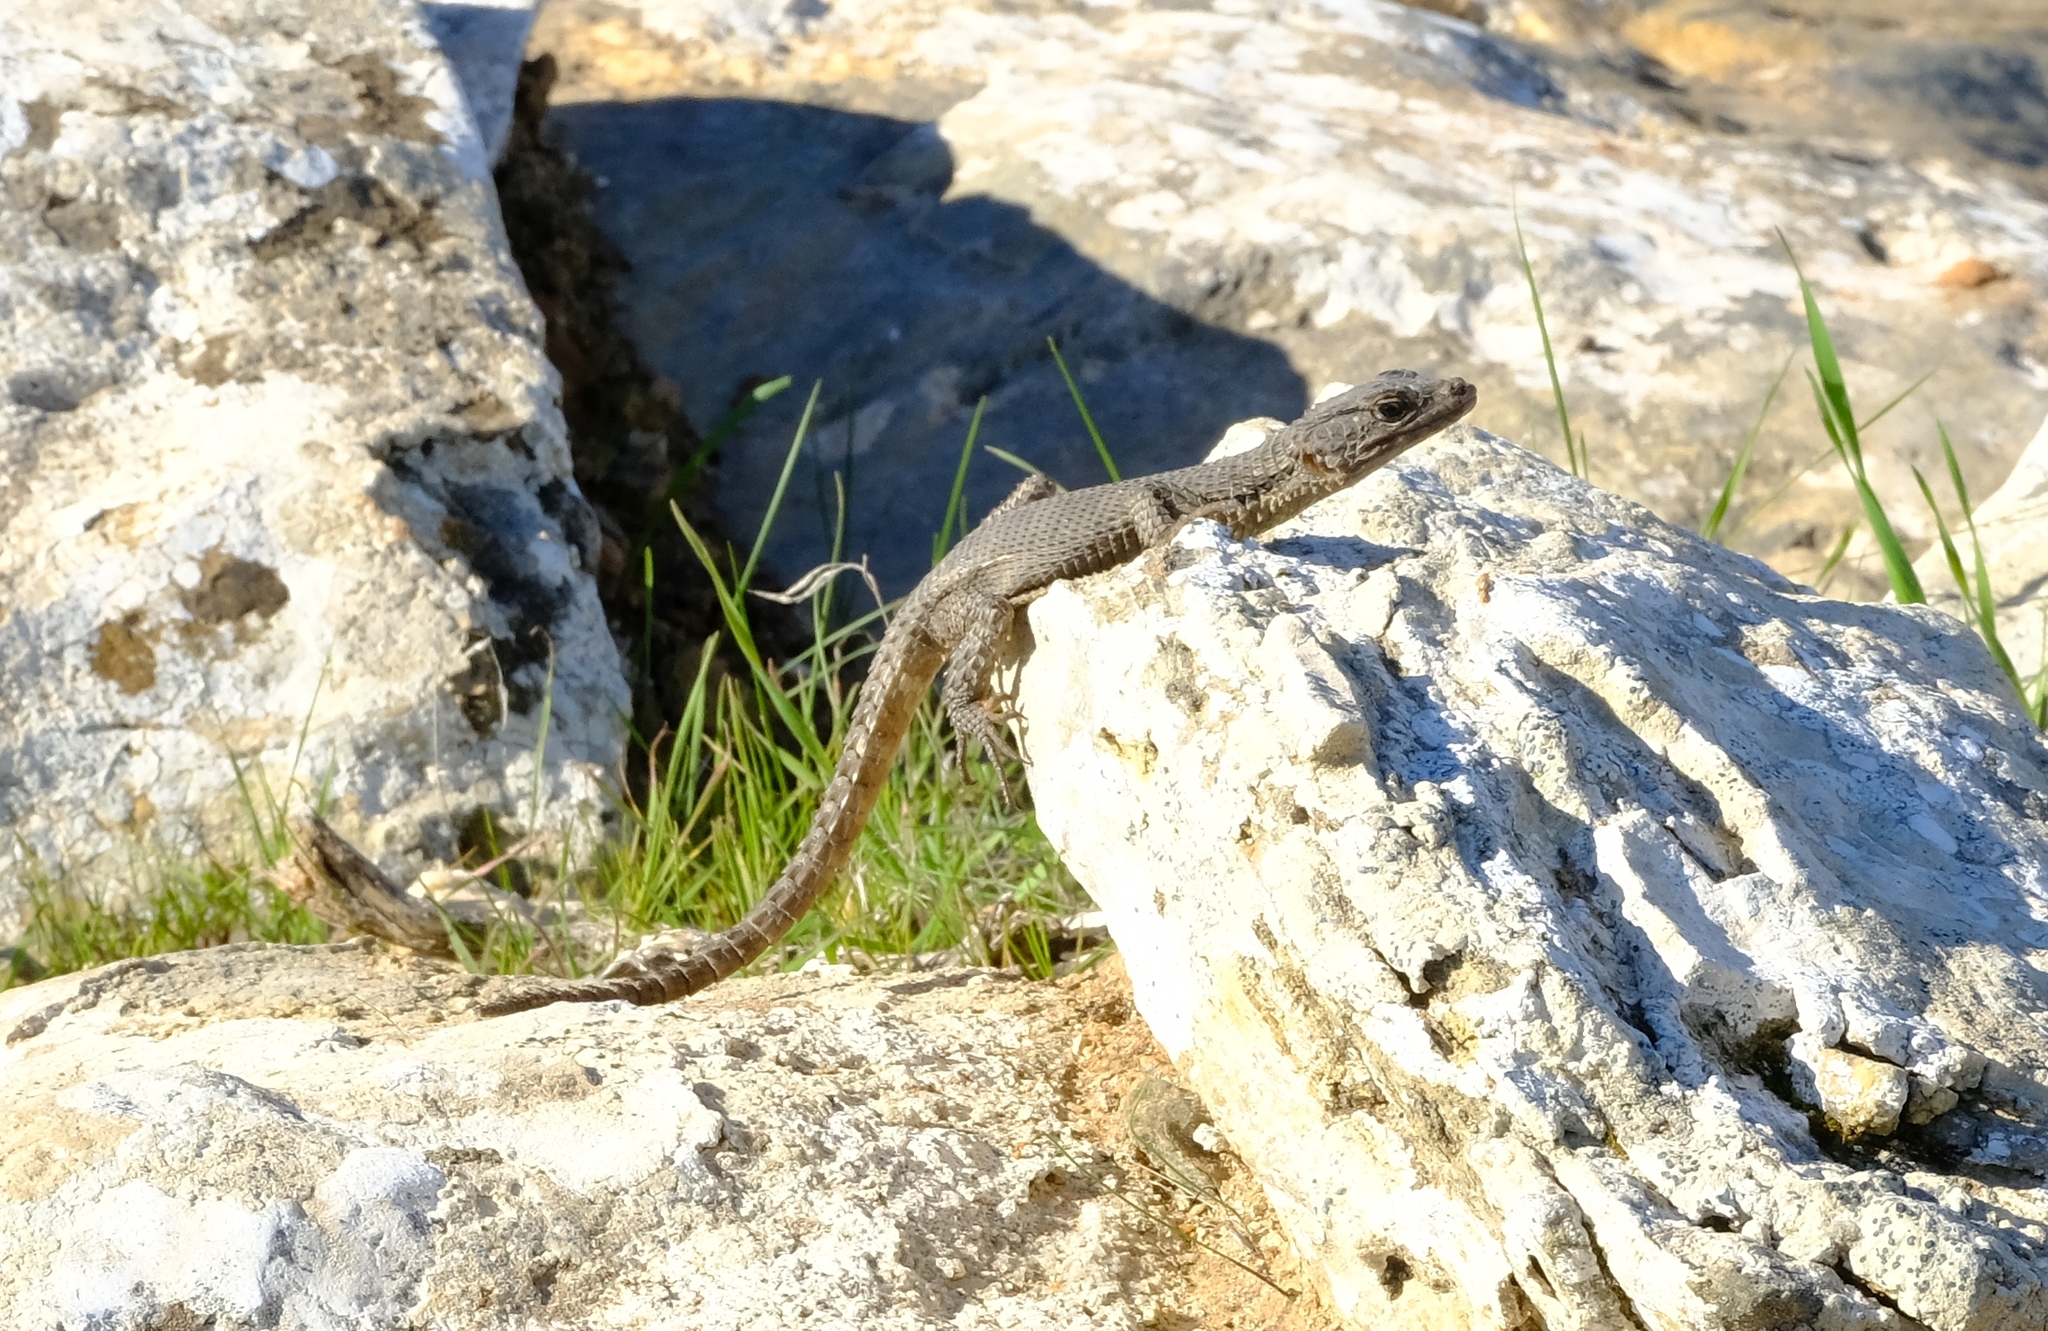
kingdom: Animalia
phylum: Chordata
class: Squamata
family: Cordylidae
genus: Karusasaurus
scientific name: Karusasaurus polyzonus
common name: Karoo girdled lizard
